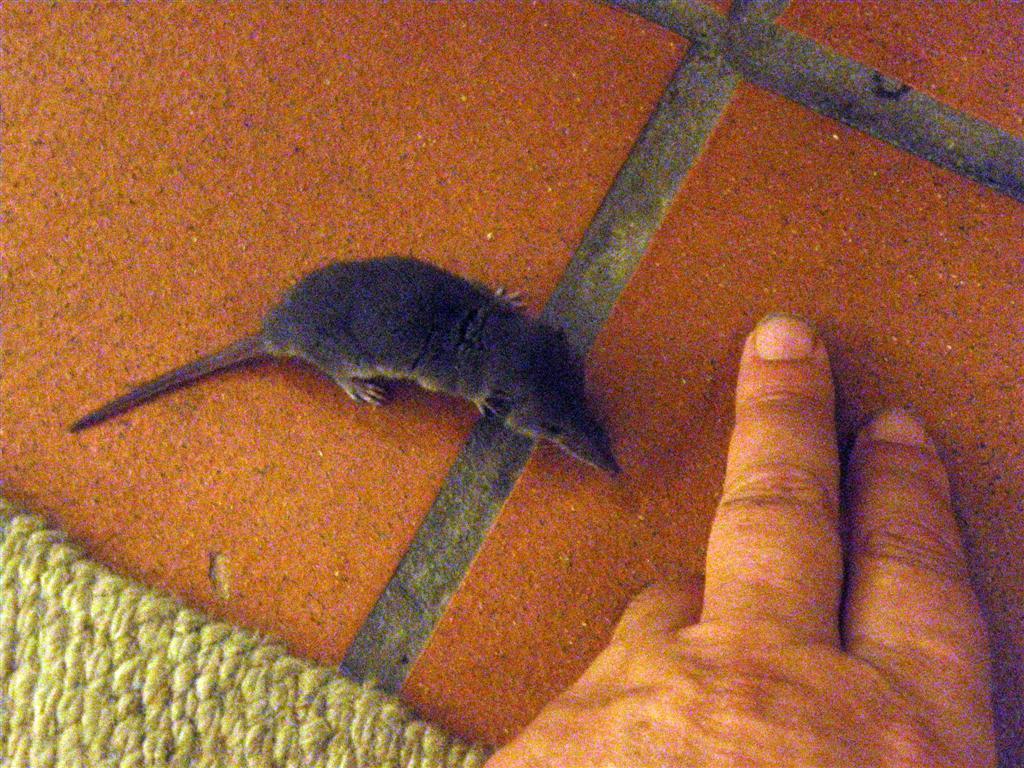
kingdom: Animalia
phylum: Chordata
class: Mammalia
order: Soricomorpha
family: Soricidae
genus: Myosorex
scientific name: Myosorex varius
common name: Forest shrew
